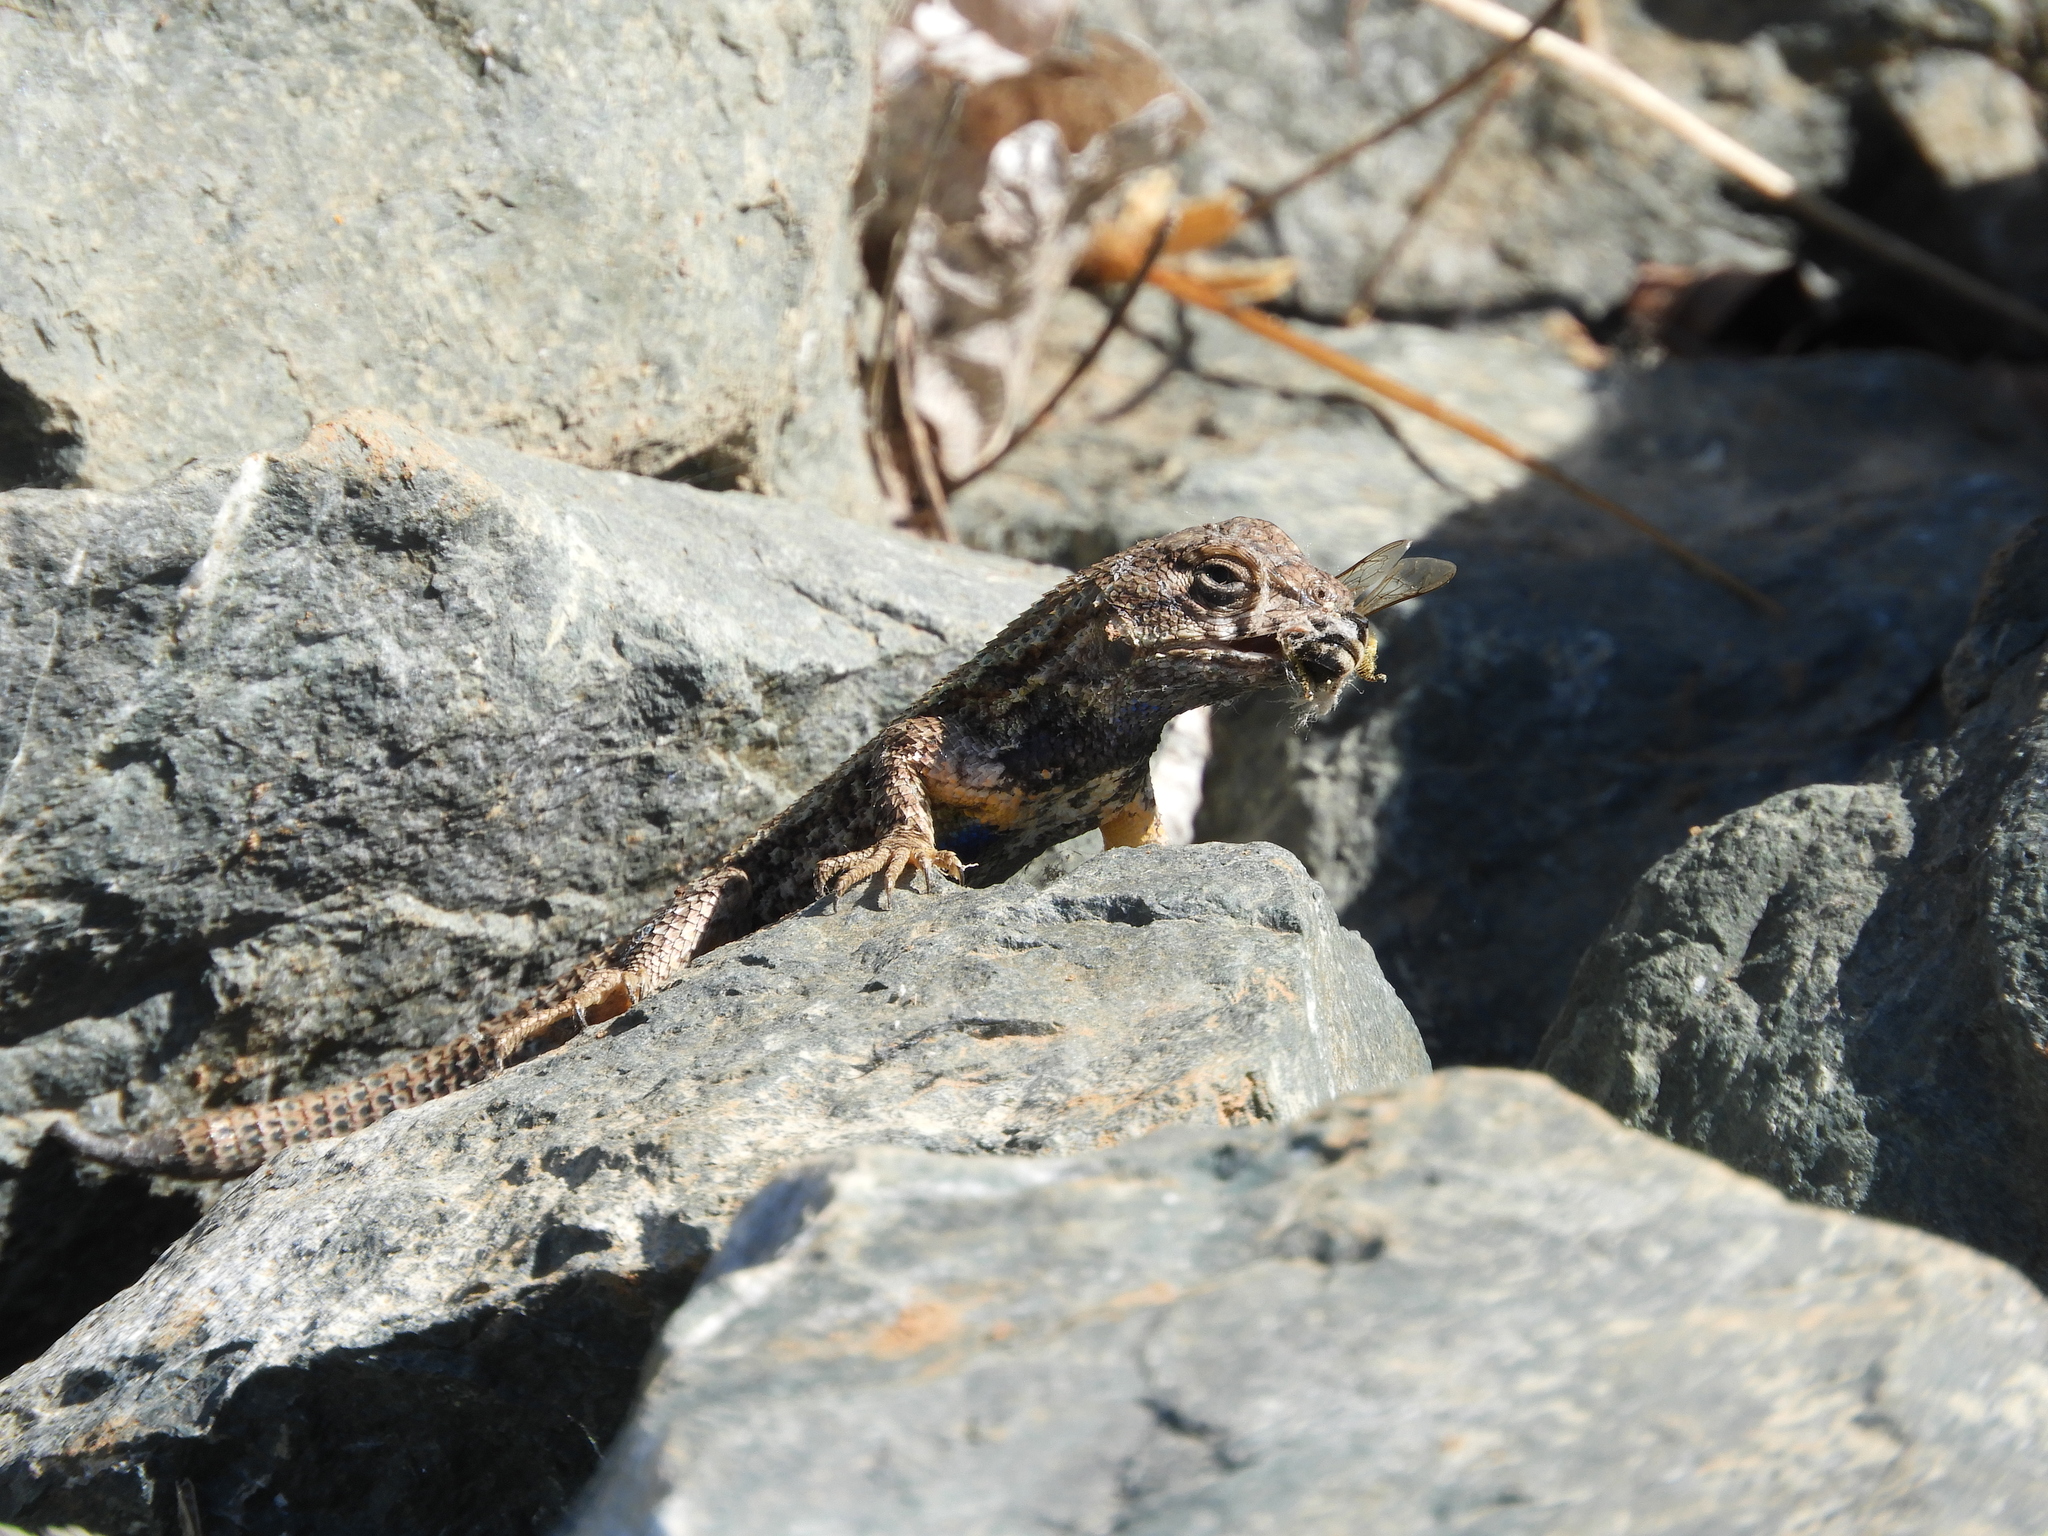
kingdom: Animalia
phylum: Chordata
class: Squamata
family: Phrynosomatidae
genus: Sceloporus
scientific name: Sceloporus occidentalis
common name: Western fence lizard
